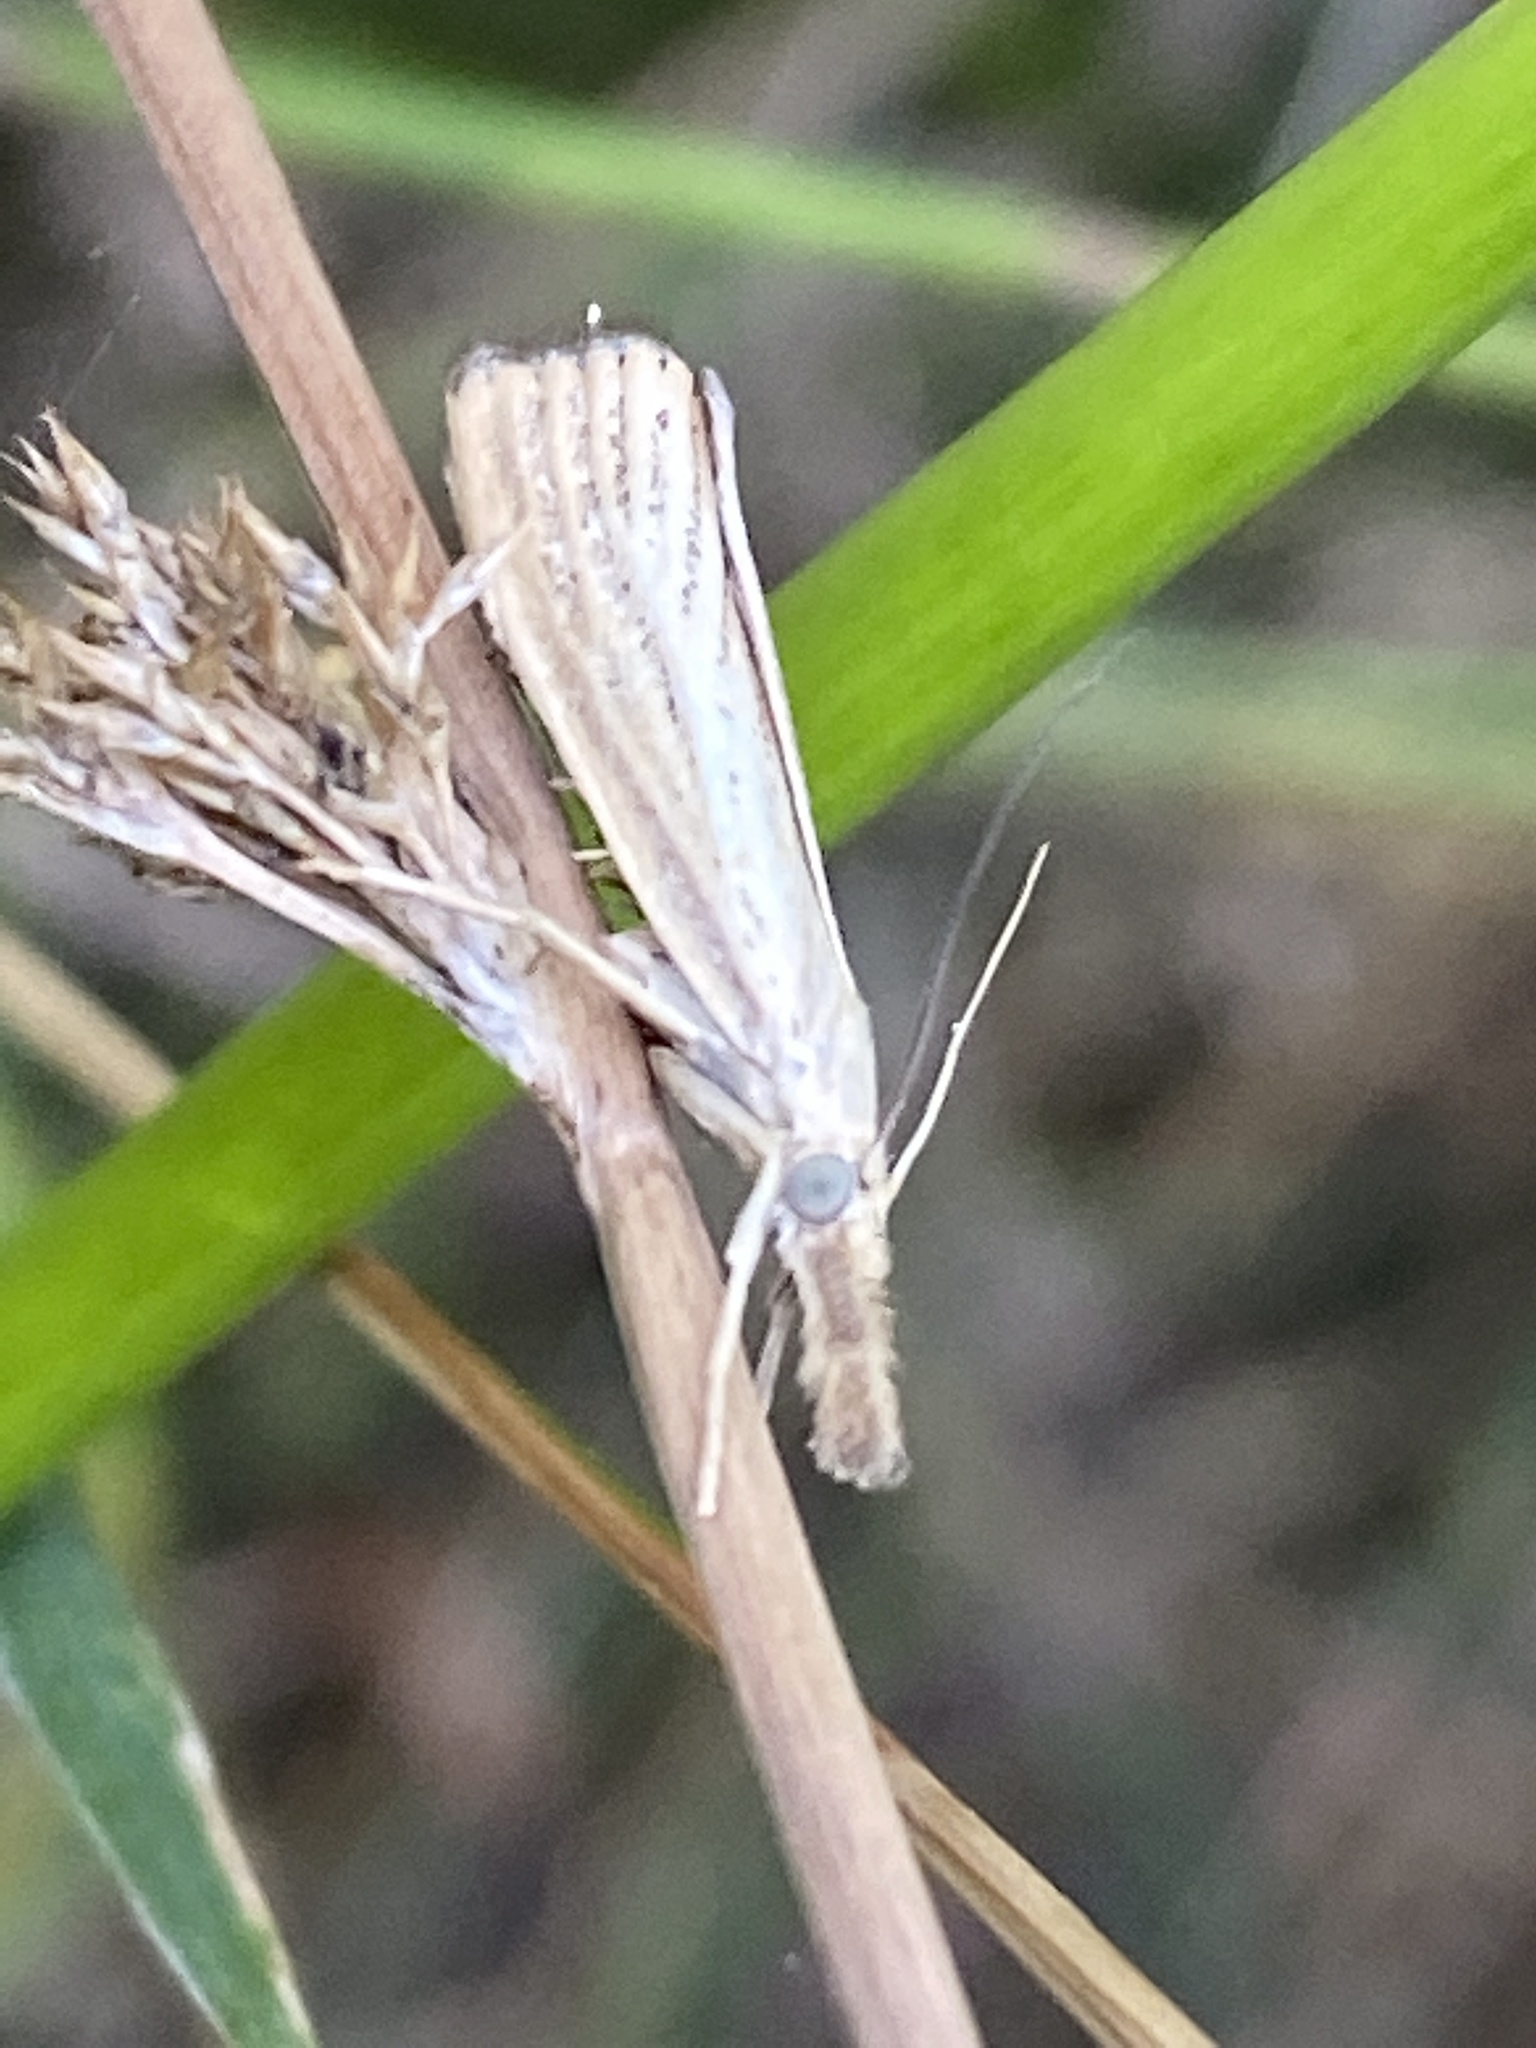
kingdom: Animalia
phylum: Arthropoda
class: Insecta
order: Lepidoptera
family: Crambidae
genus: Agriphila
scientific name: Agriphila straminella
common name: Straw grass-veneer
